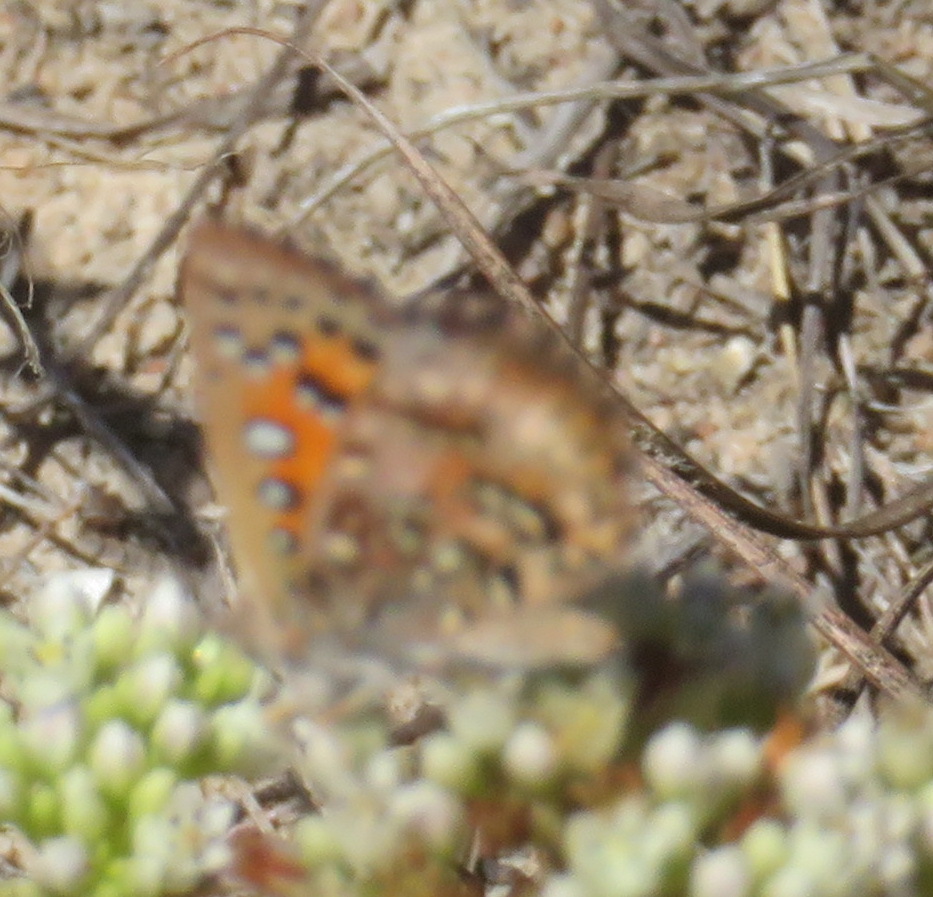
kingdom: Animalia
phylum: Arthropoda
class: Insecta
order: Lepidoptera
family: Lycaenidae
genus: Aloeides
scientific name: Aloeides pierus
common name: Dull copper
